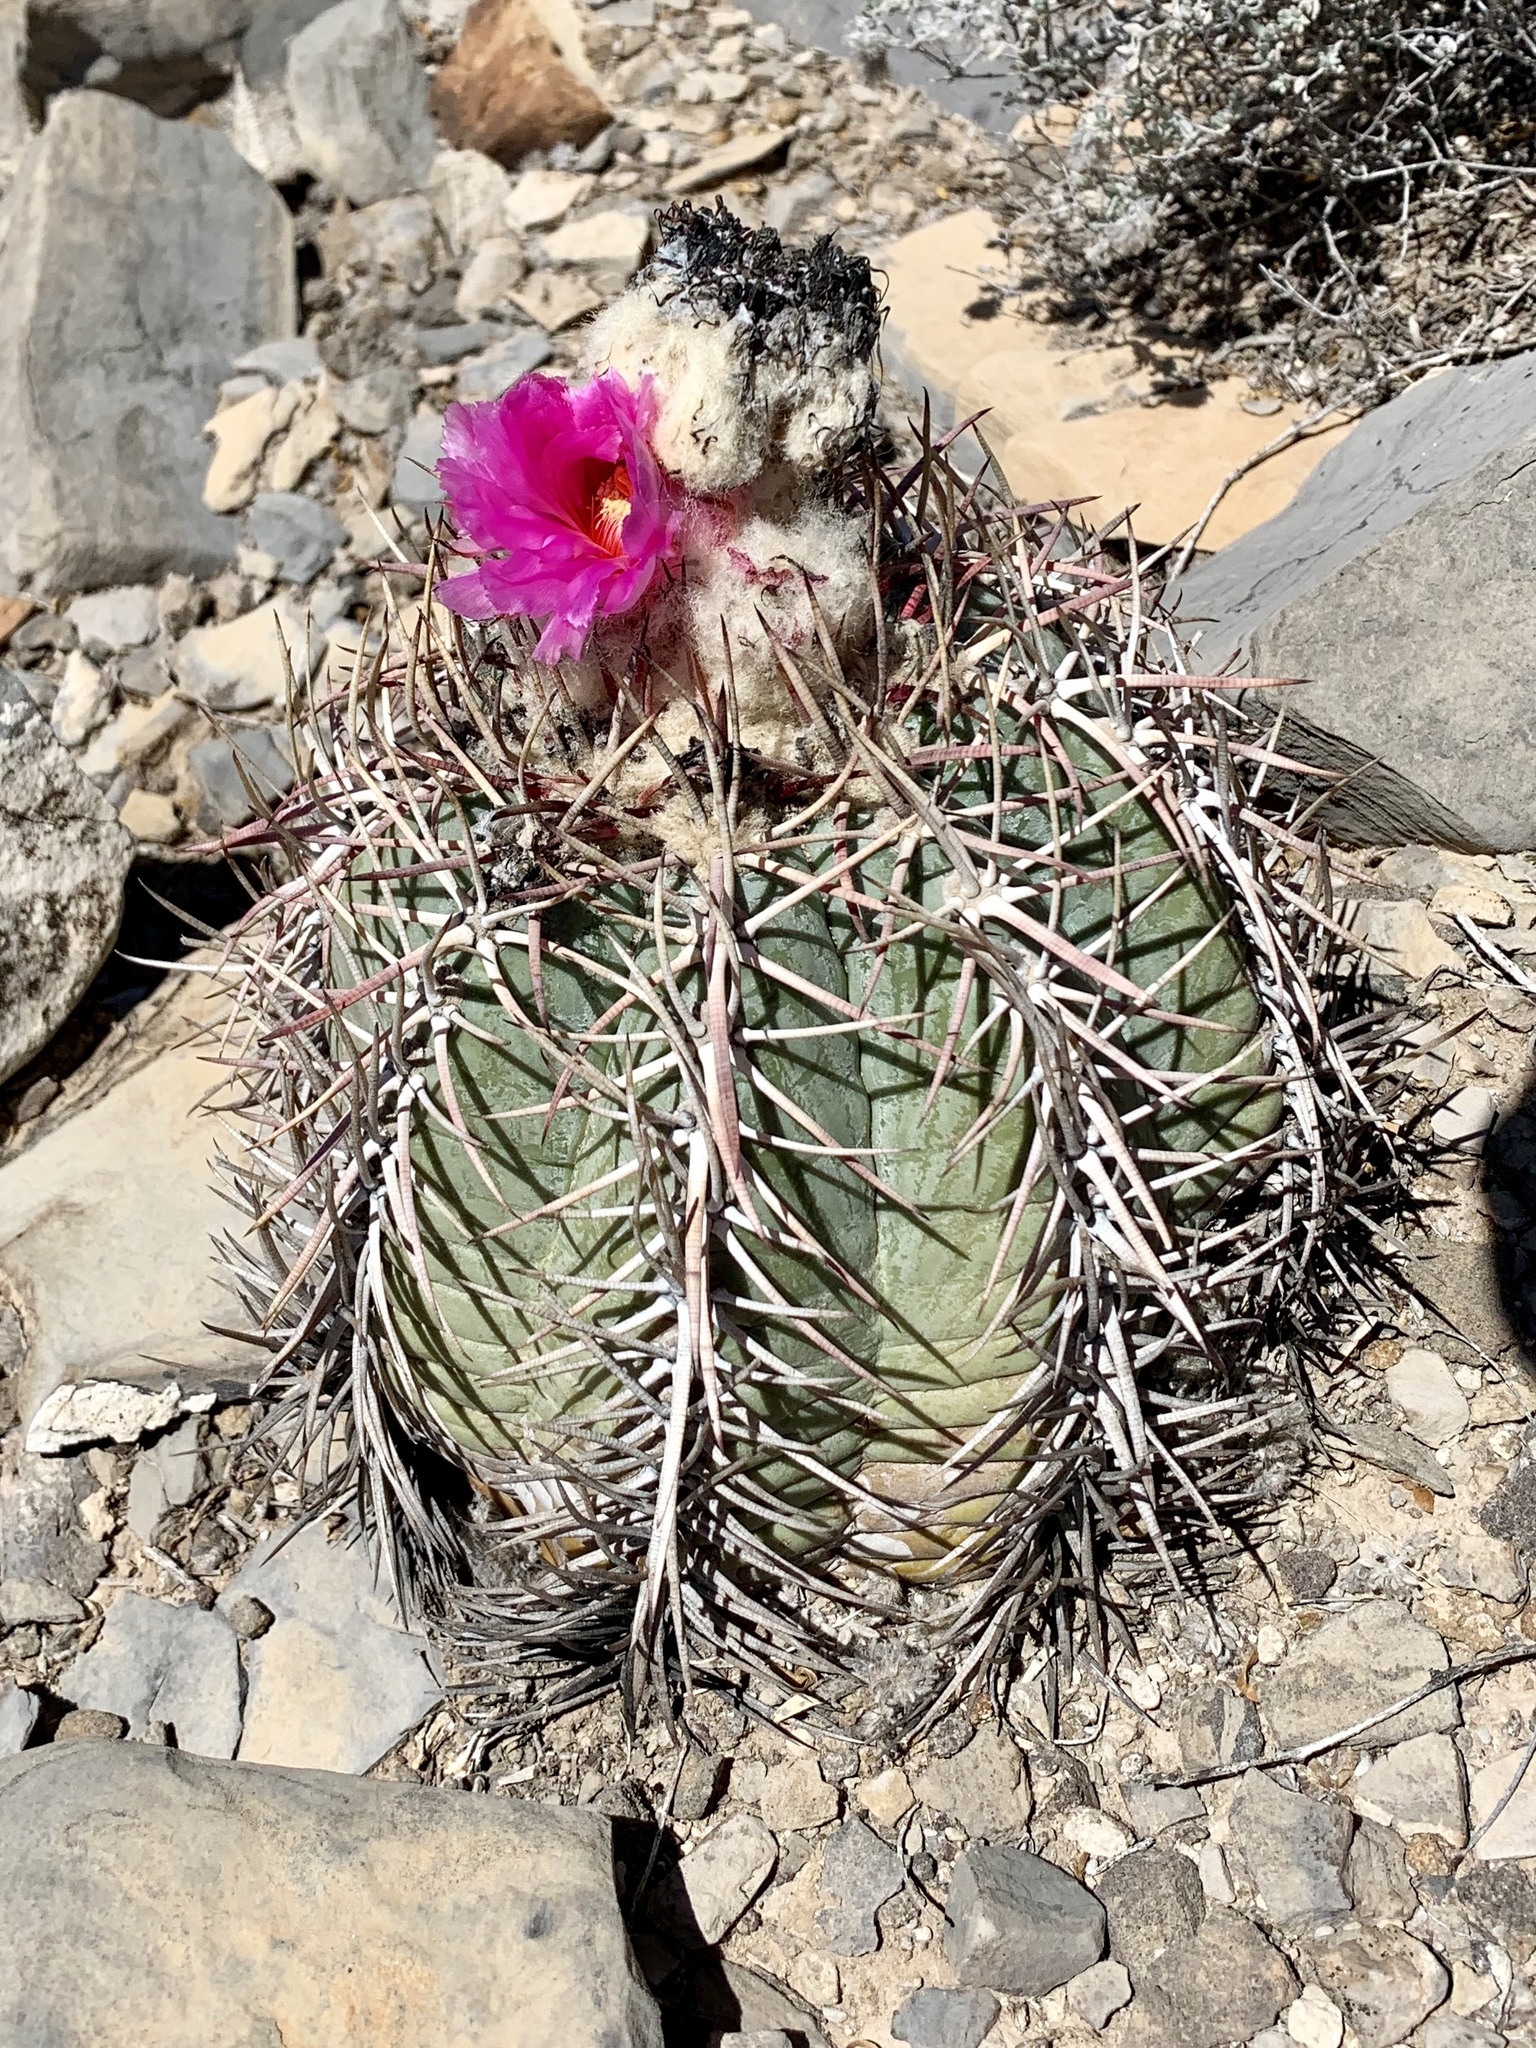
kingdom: Plantae
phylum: Tracheophyta
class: Magnoliopsida
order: Caryophyllales
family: Cactaceae
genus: Echinocactus
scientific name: Echinocactus horizonthalonius
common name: Devilshead
